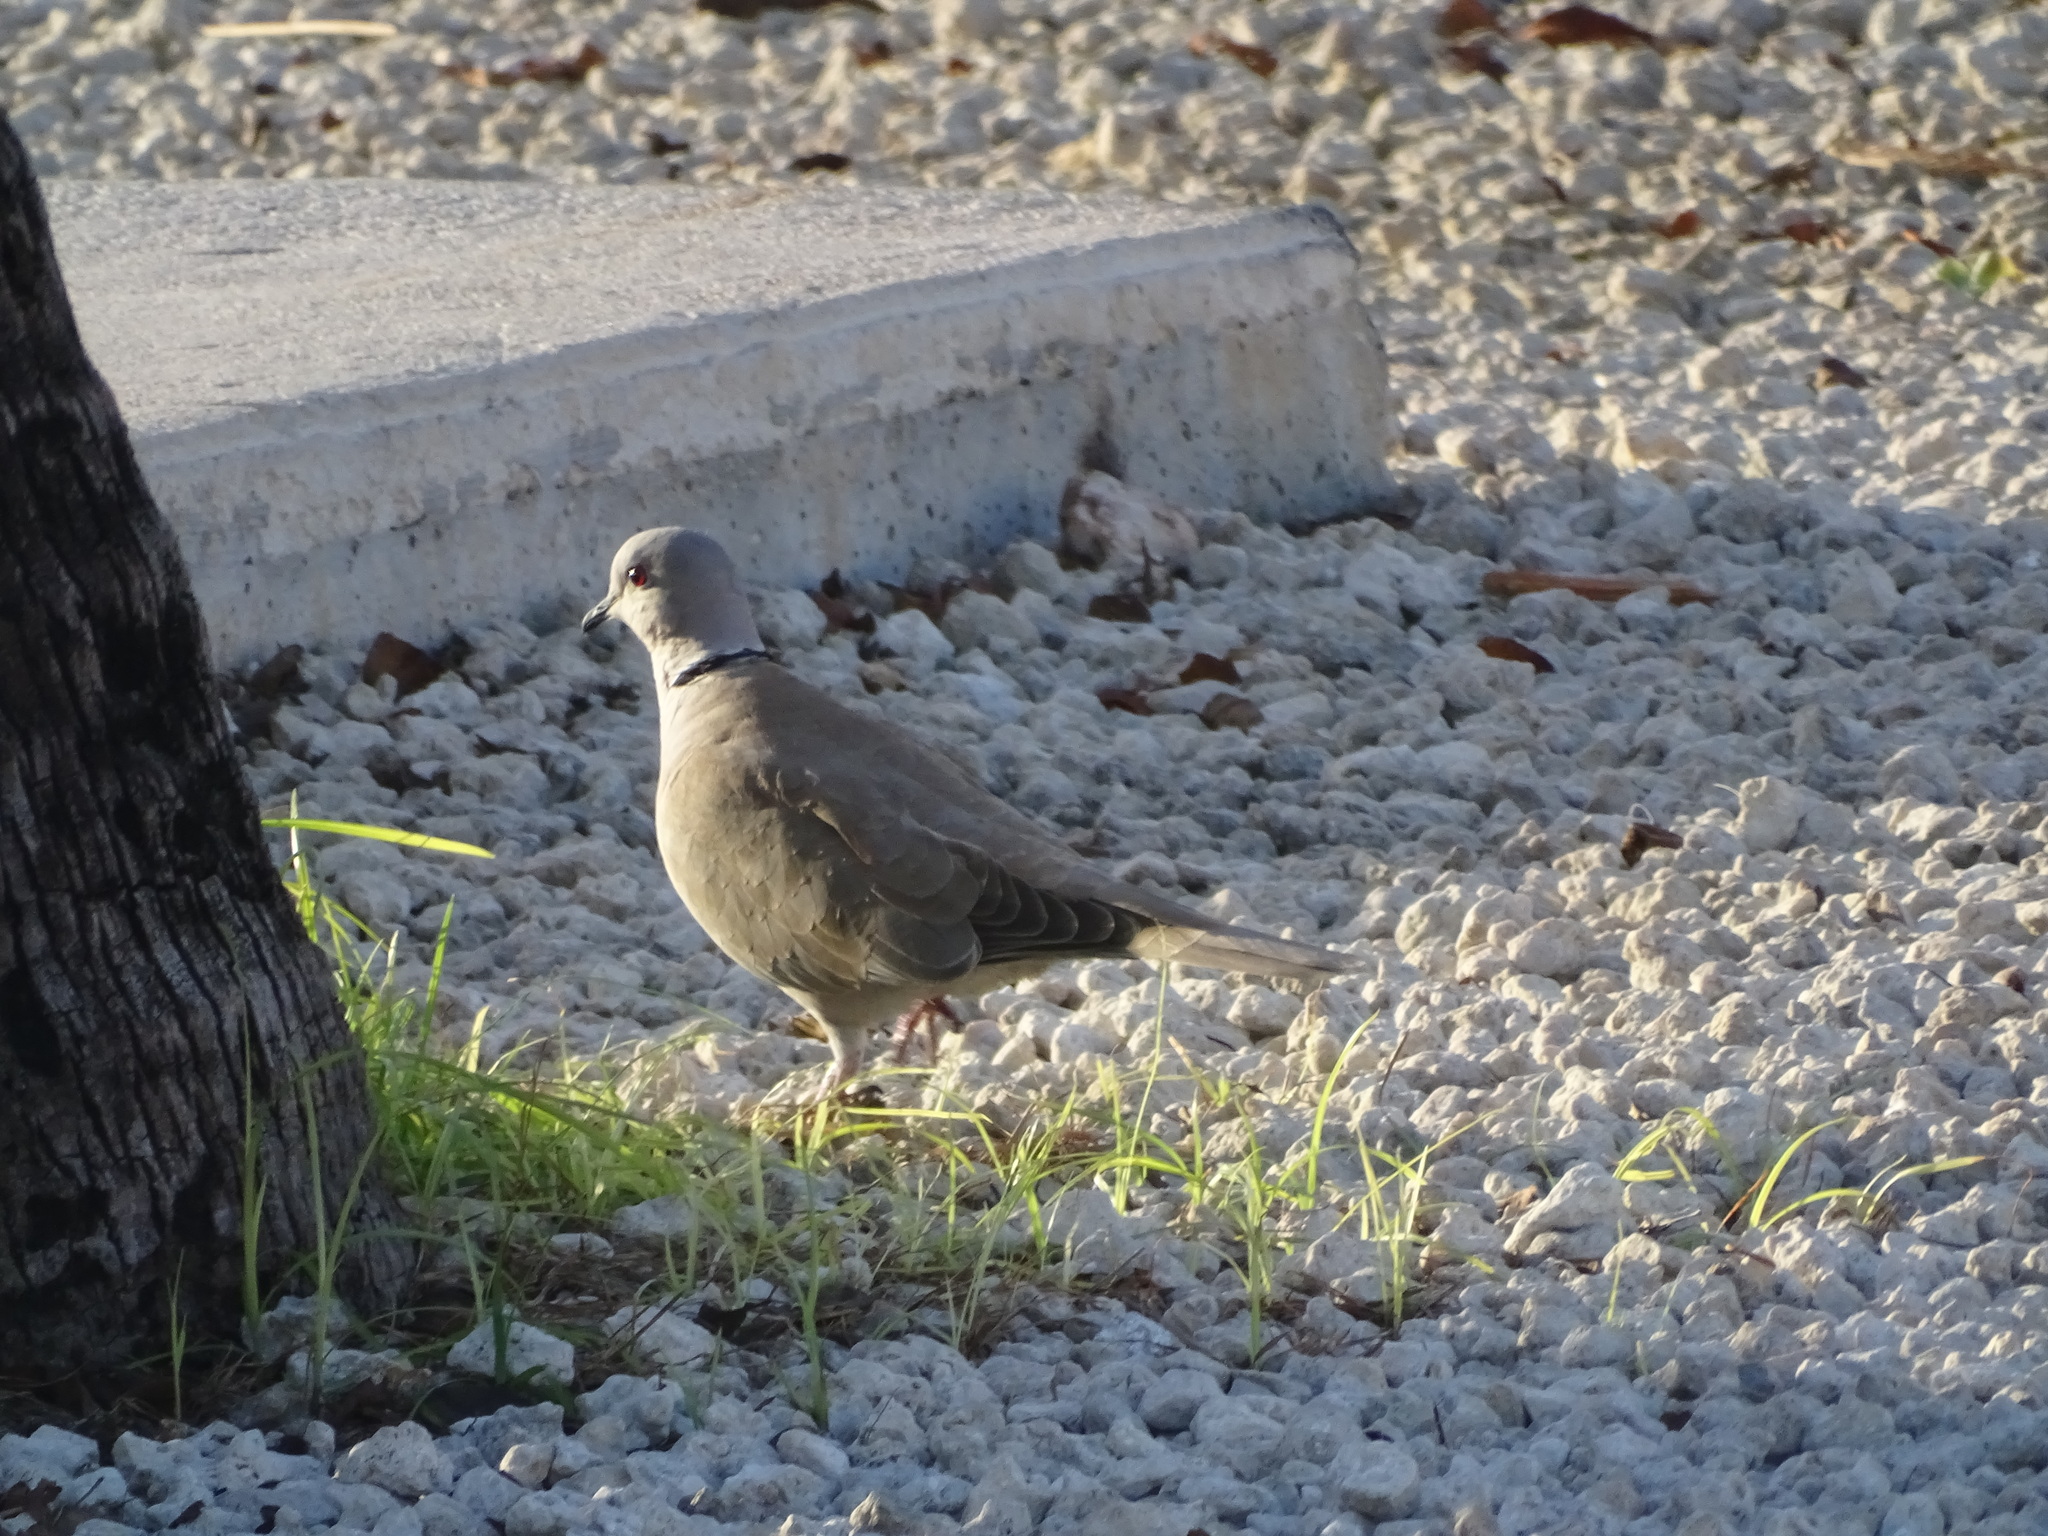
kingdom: Animalia
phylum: Chordata
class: Aves
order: Columbiformes
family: Columbidae
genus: Streptopelia
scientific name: Streptopelia decaocto
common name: Eurasian collared dove
